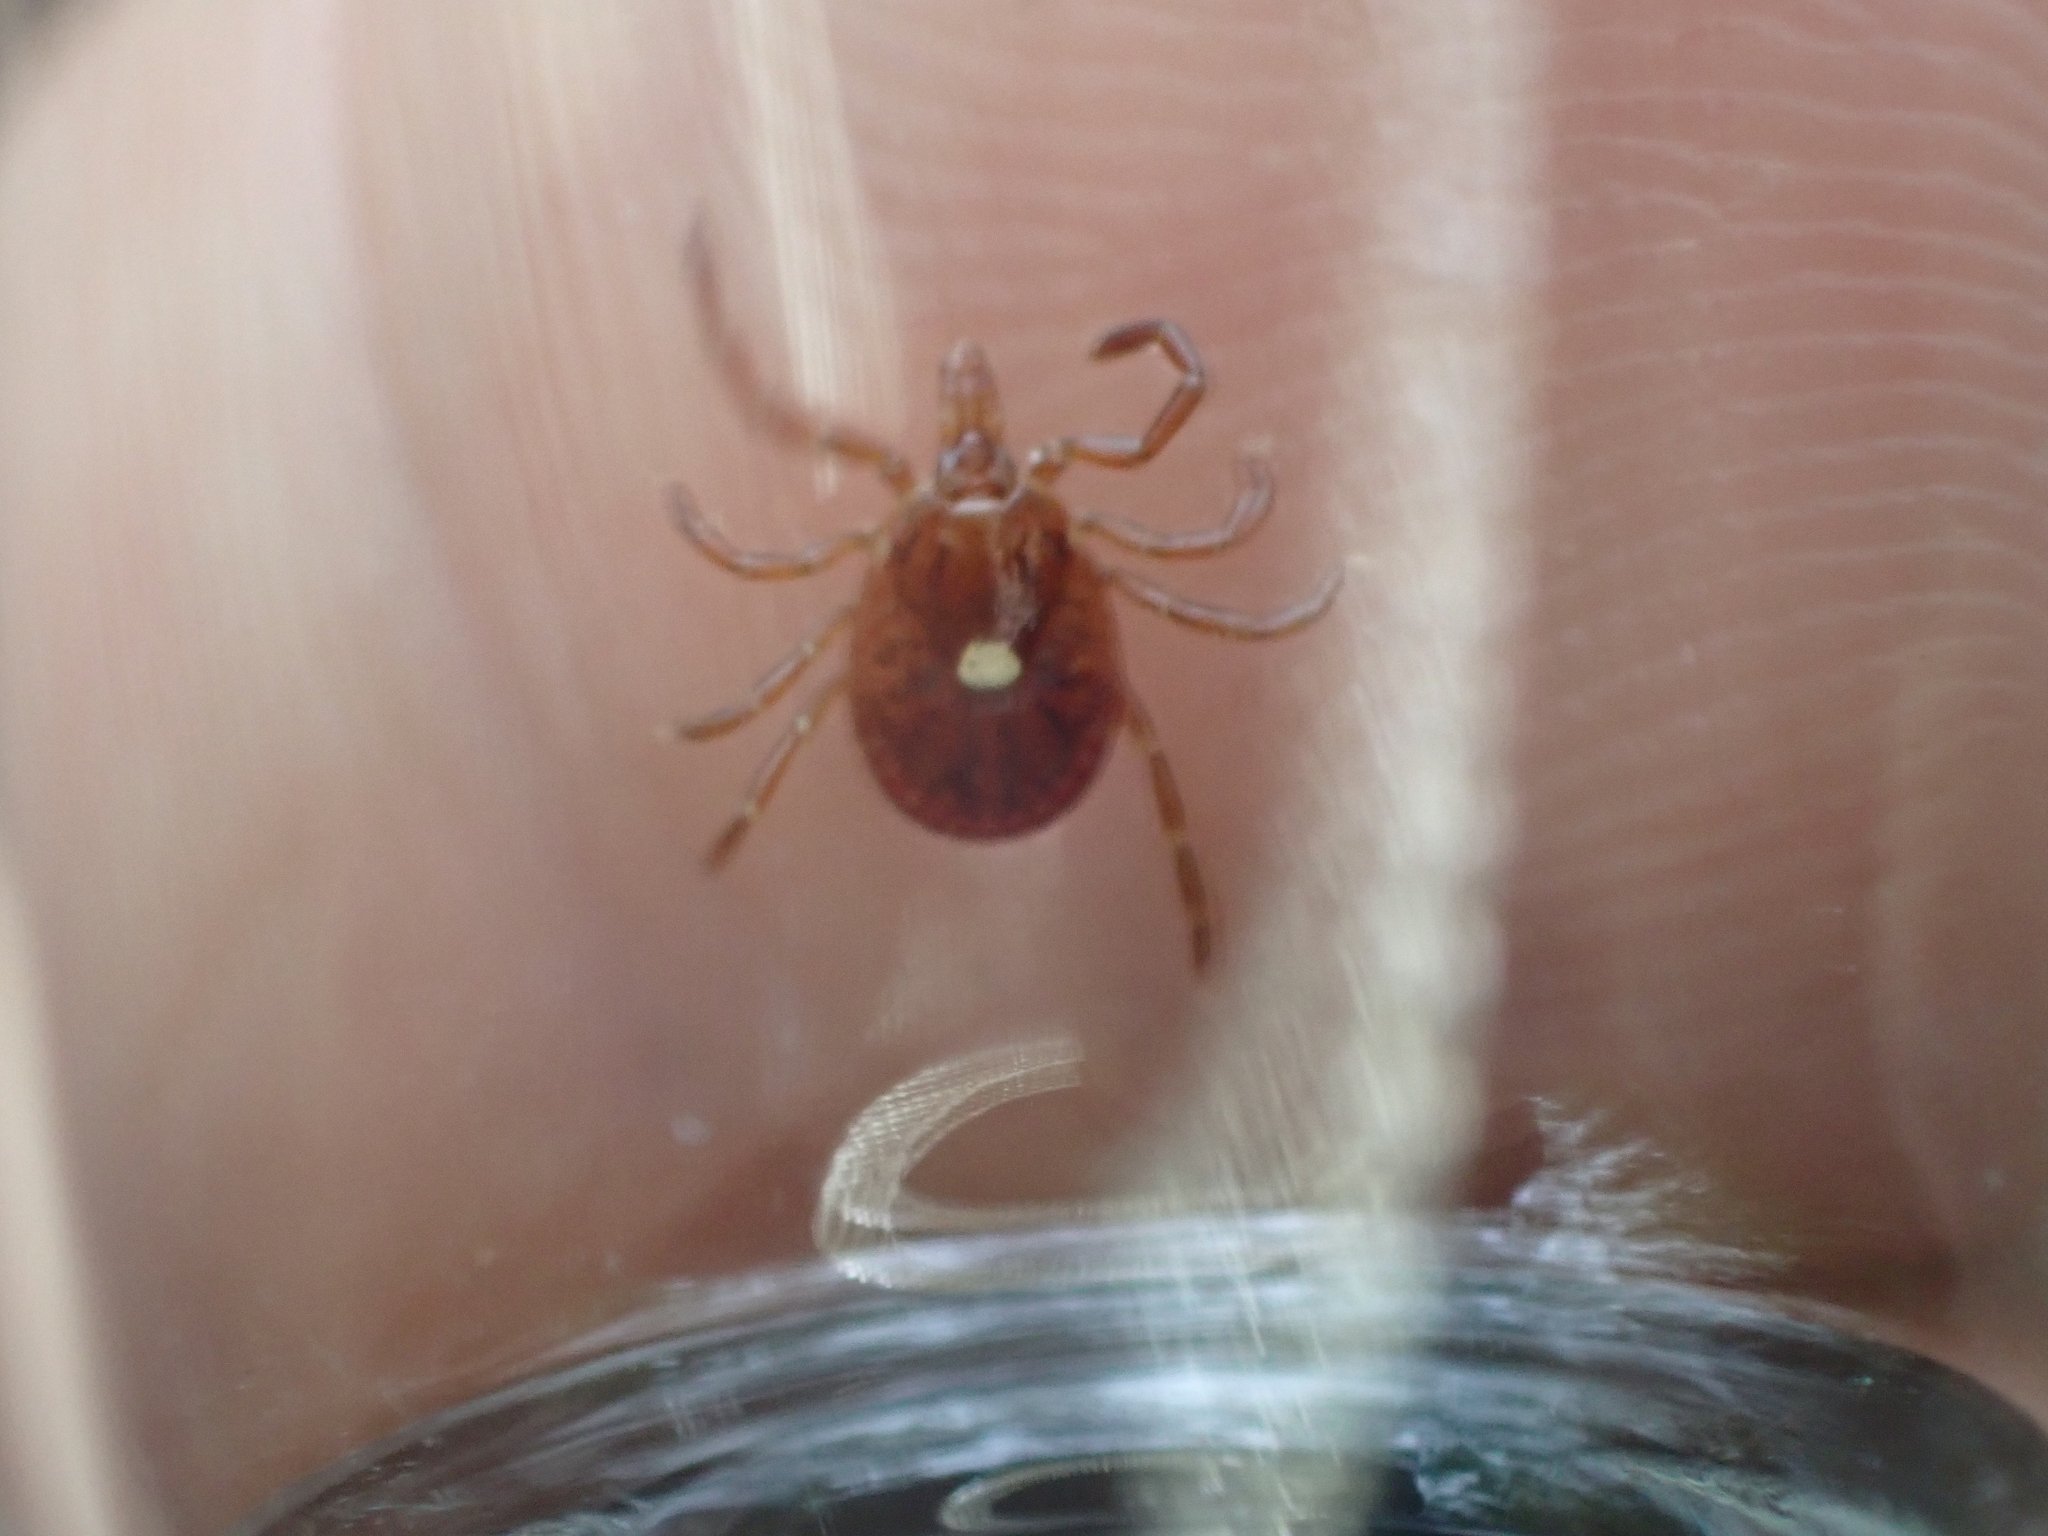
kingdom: Animalia
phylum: Arthropoda
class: Arachnida
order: Ixodida
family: Ixodidae
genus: Amblyomma
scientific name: Amblyomma americanum
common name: Lone star tick
